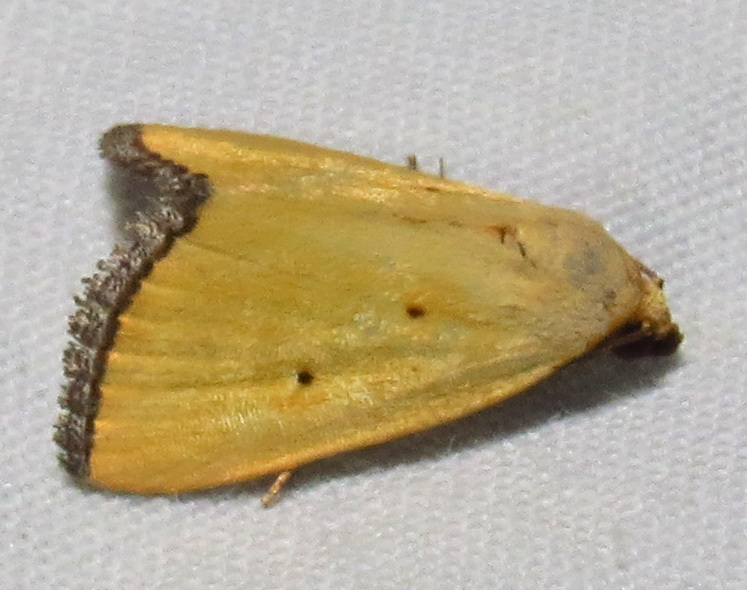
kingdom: Animalia
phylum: Arthropoda
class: Insecta
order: Lepidoptera
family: Noctuidae
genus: Marimatha
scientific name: Marimatha nigrofimbria
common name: Black-bordered lemon moth
